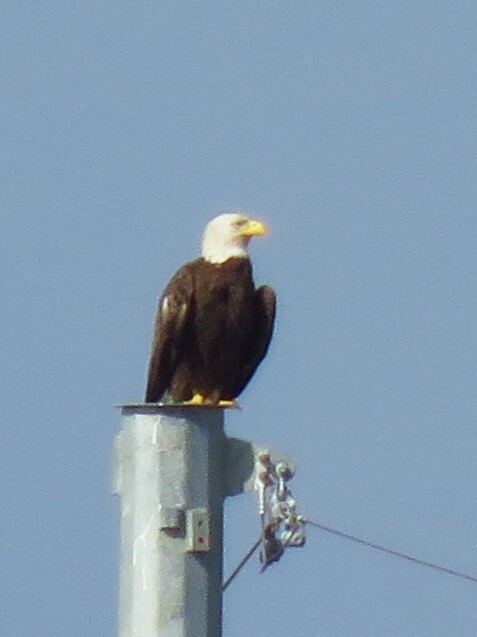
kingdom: Animalia
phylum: Chordata
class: Aves
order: Accipitriformes
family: Accipitridae
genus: Haliaeetus
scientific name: Haliaeetus leucocephalus
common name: Bald eagle
